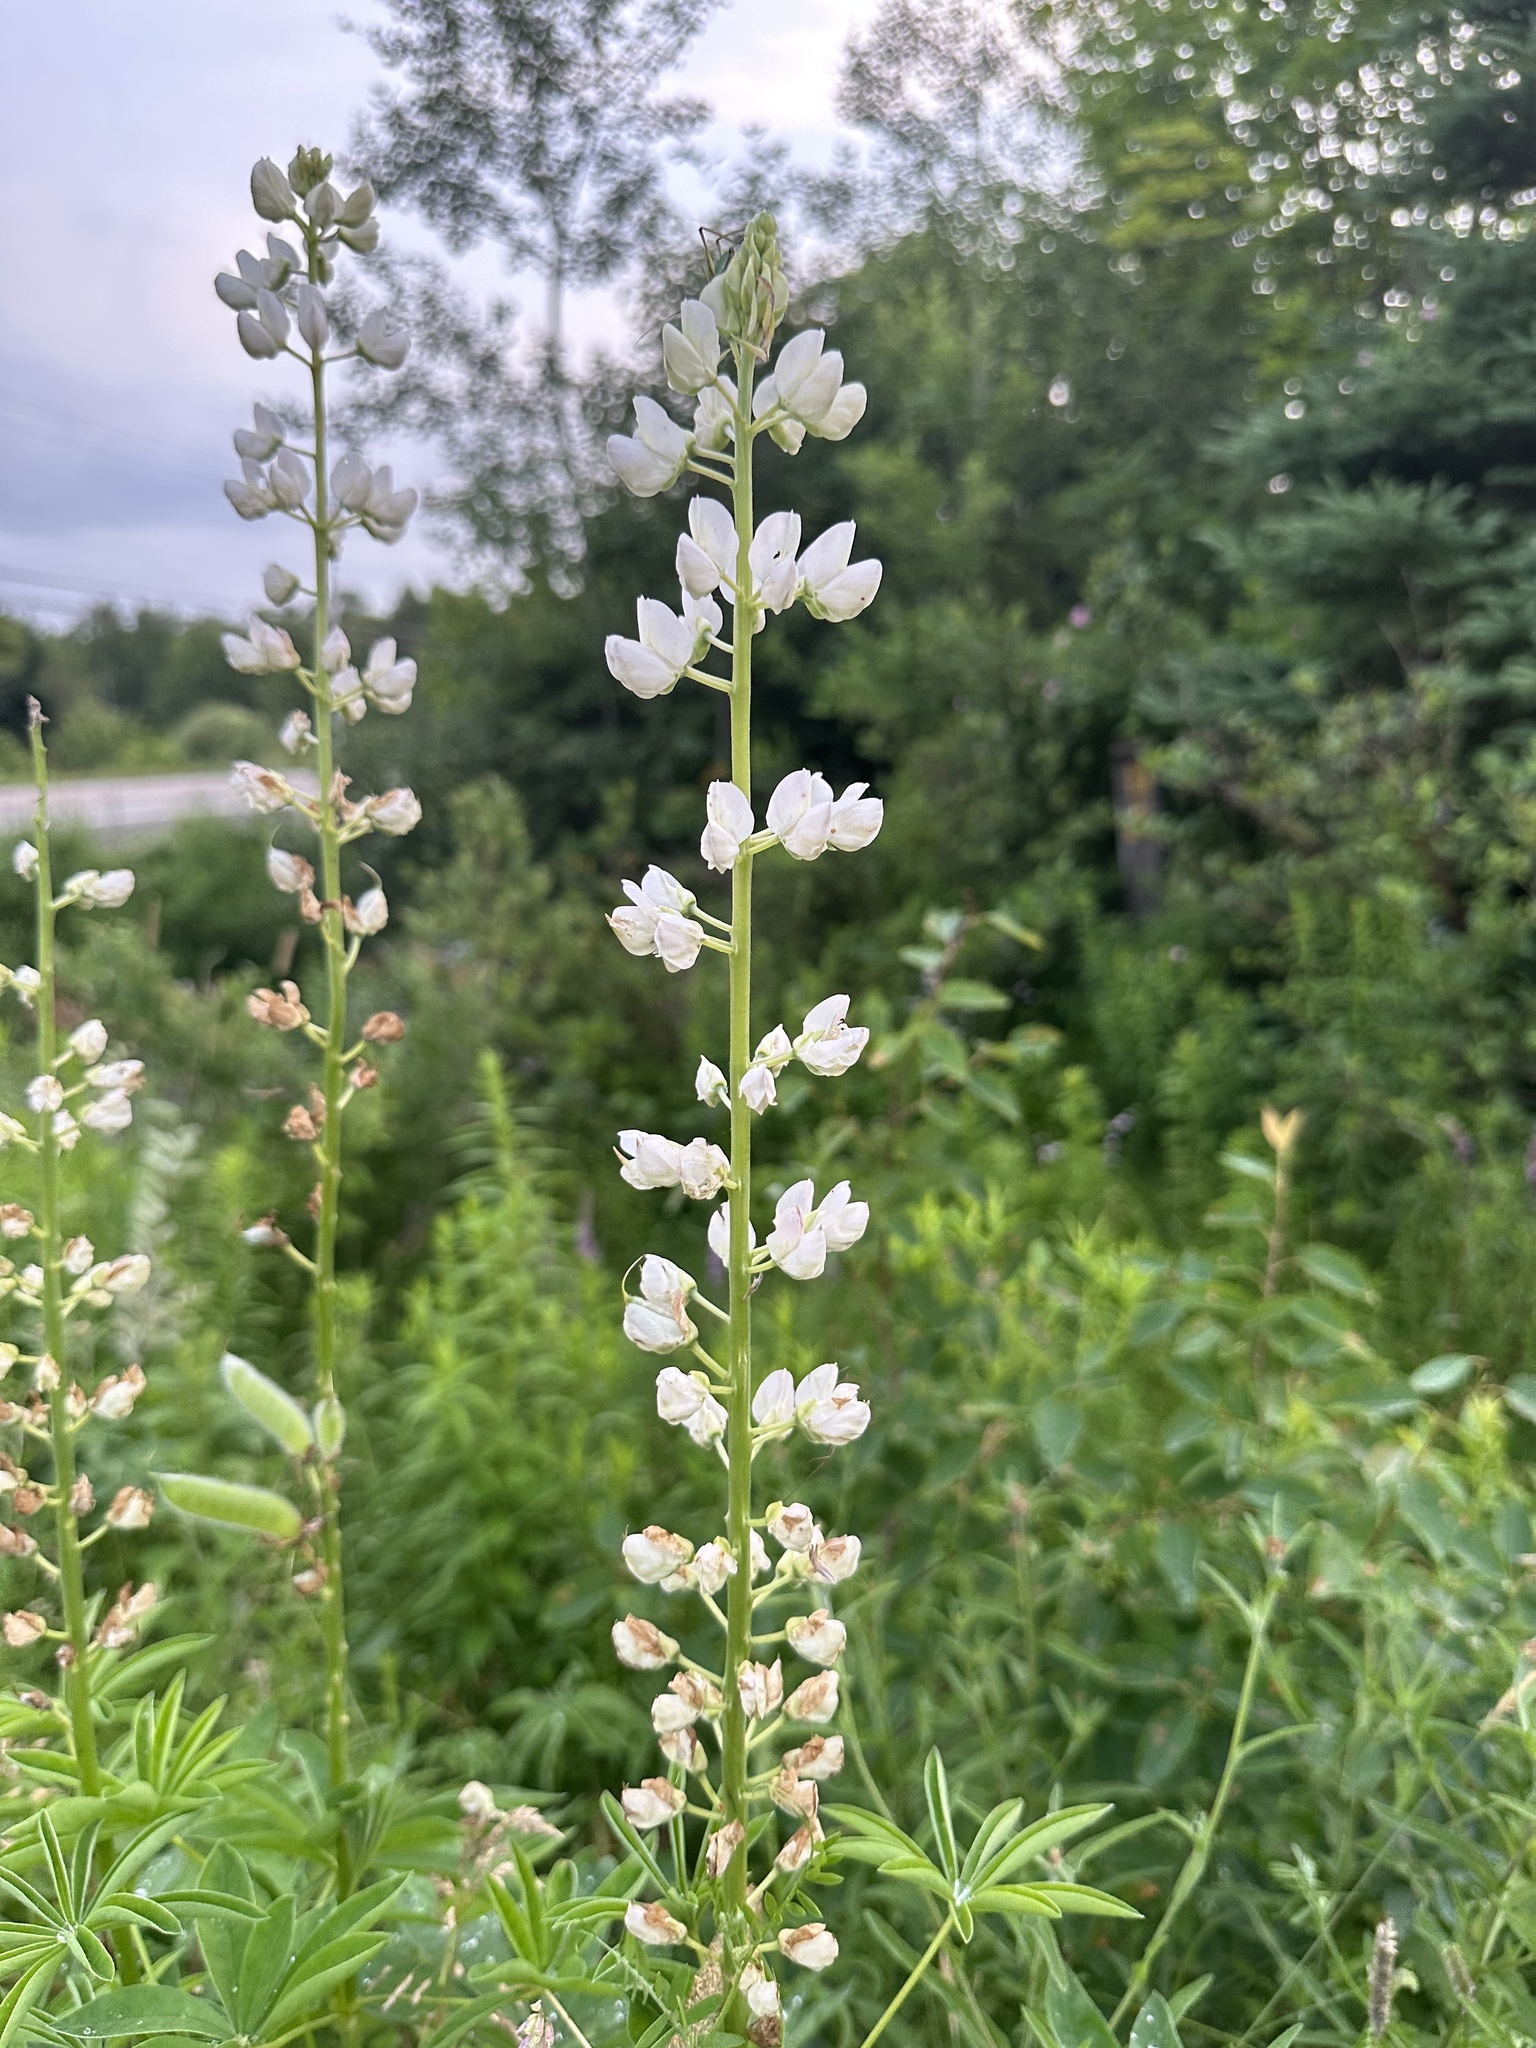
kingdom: Plantae
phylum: Tracheophyta
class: Magnoliopsida
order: Fabales
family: Fabaceae
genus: Lupinus
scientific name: Lupinus polyphyllus
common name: Garden lupin
